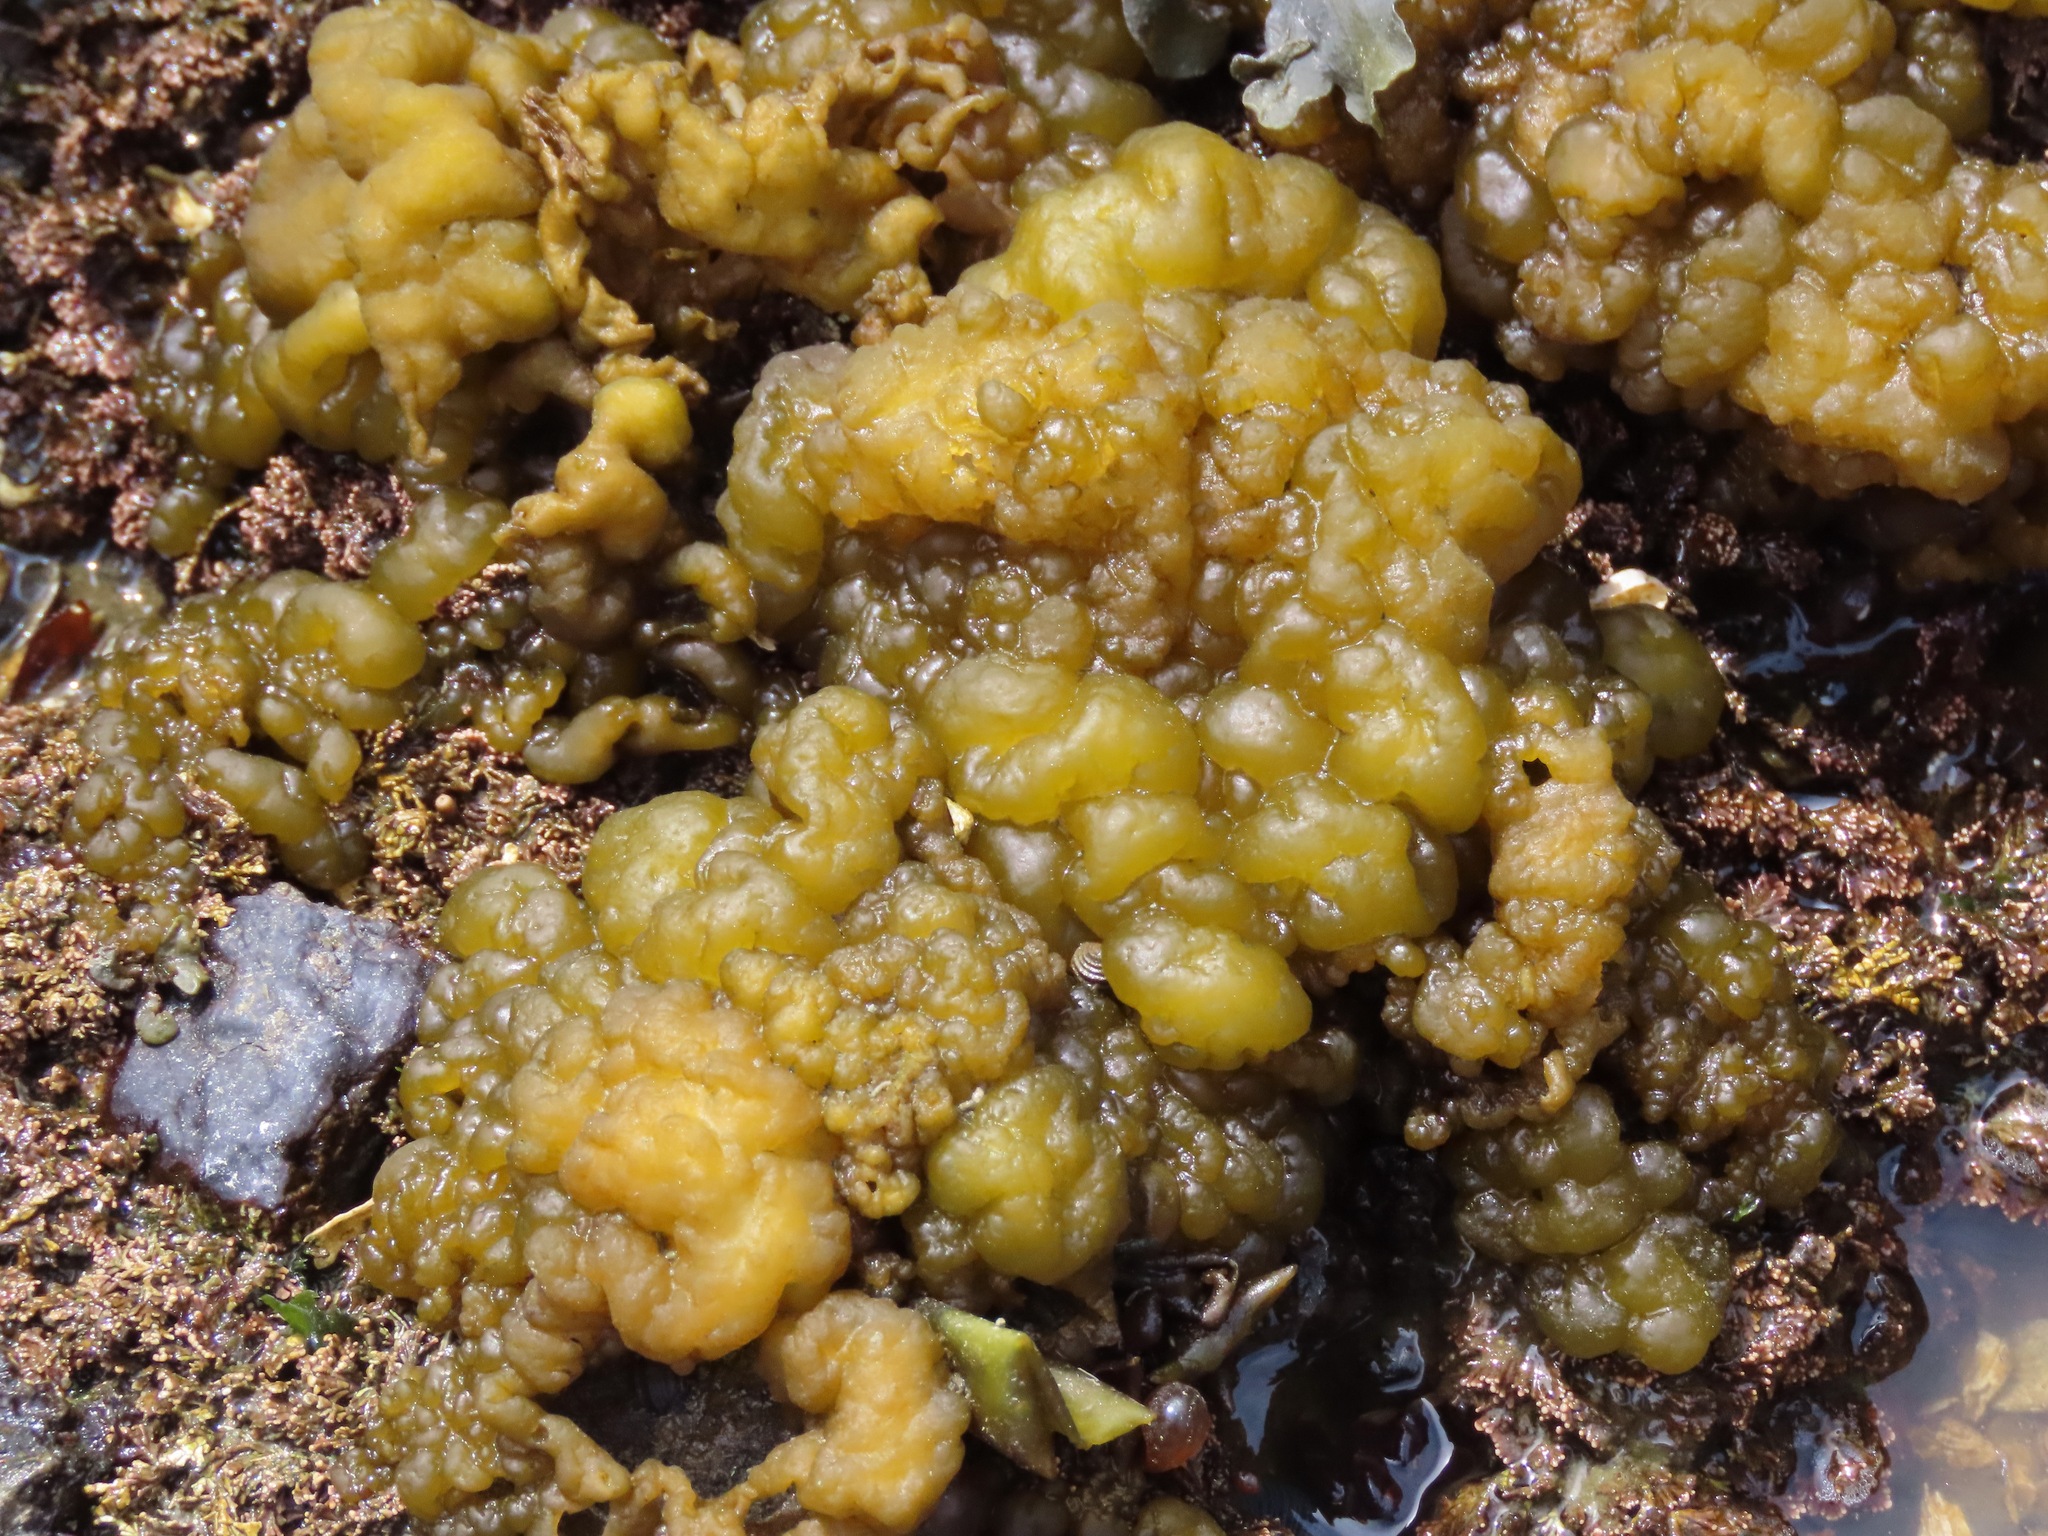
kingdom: Chromista
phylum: Ochrophyta
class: Phaeophyceae
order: Ectocarpales
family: Chordariaceae
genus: Leathesia
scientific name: Leathesia marina
